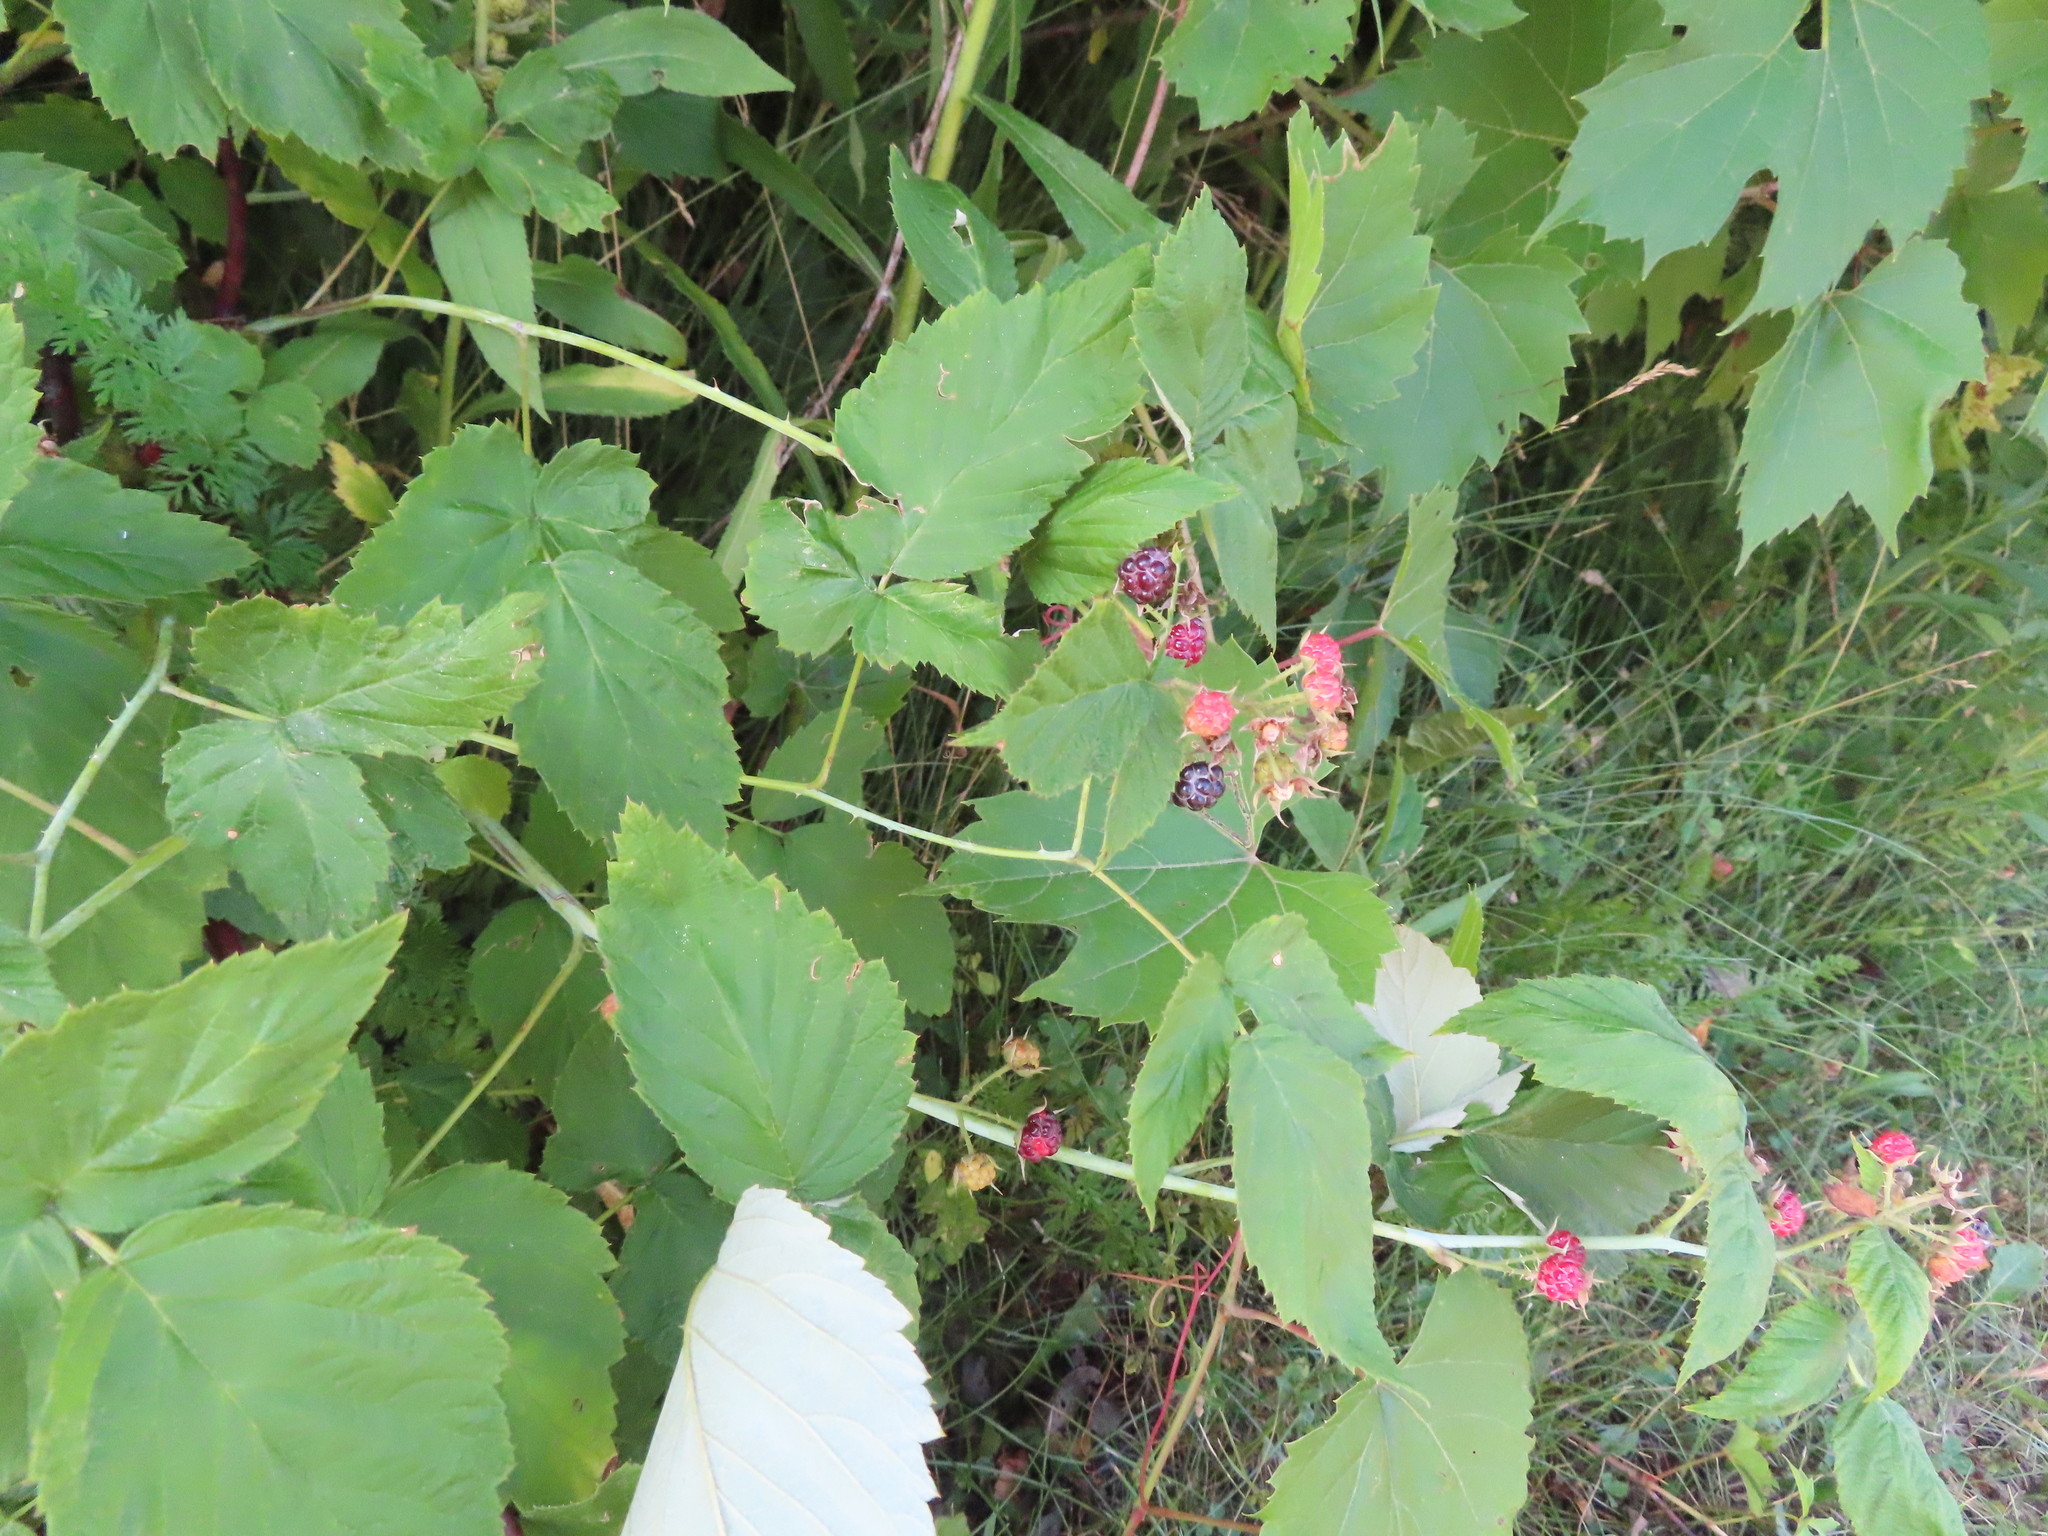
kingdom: Plantae
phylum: Tracheophyta
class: Magnoliopsida
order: Rosales
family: Rosaceae
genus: Rubus
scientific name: Rubus occidentalis
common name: Black raspberry
